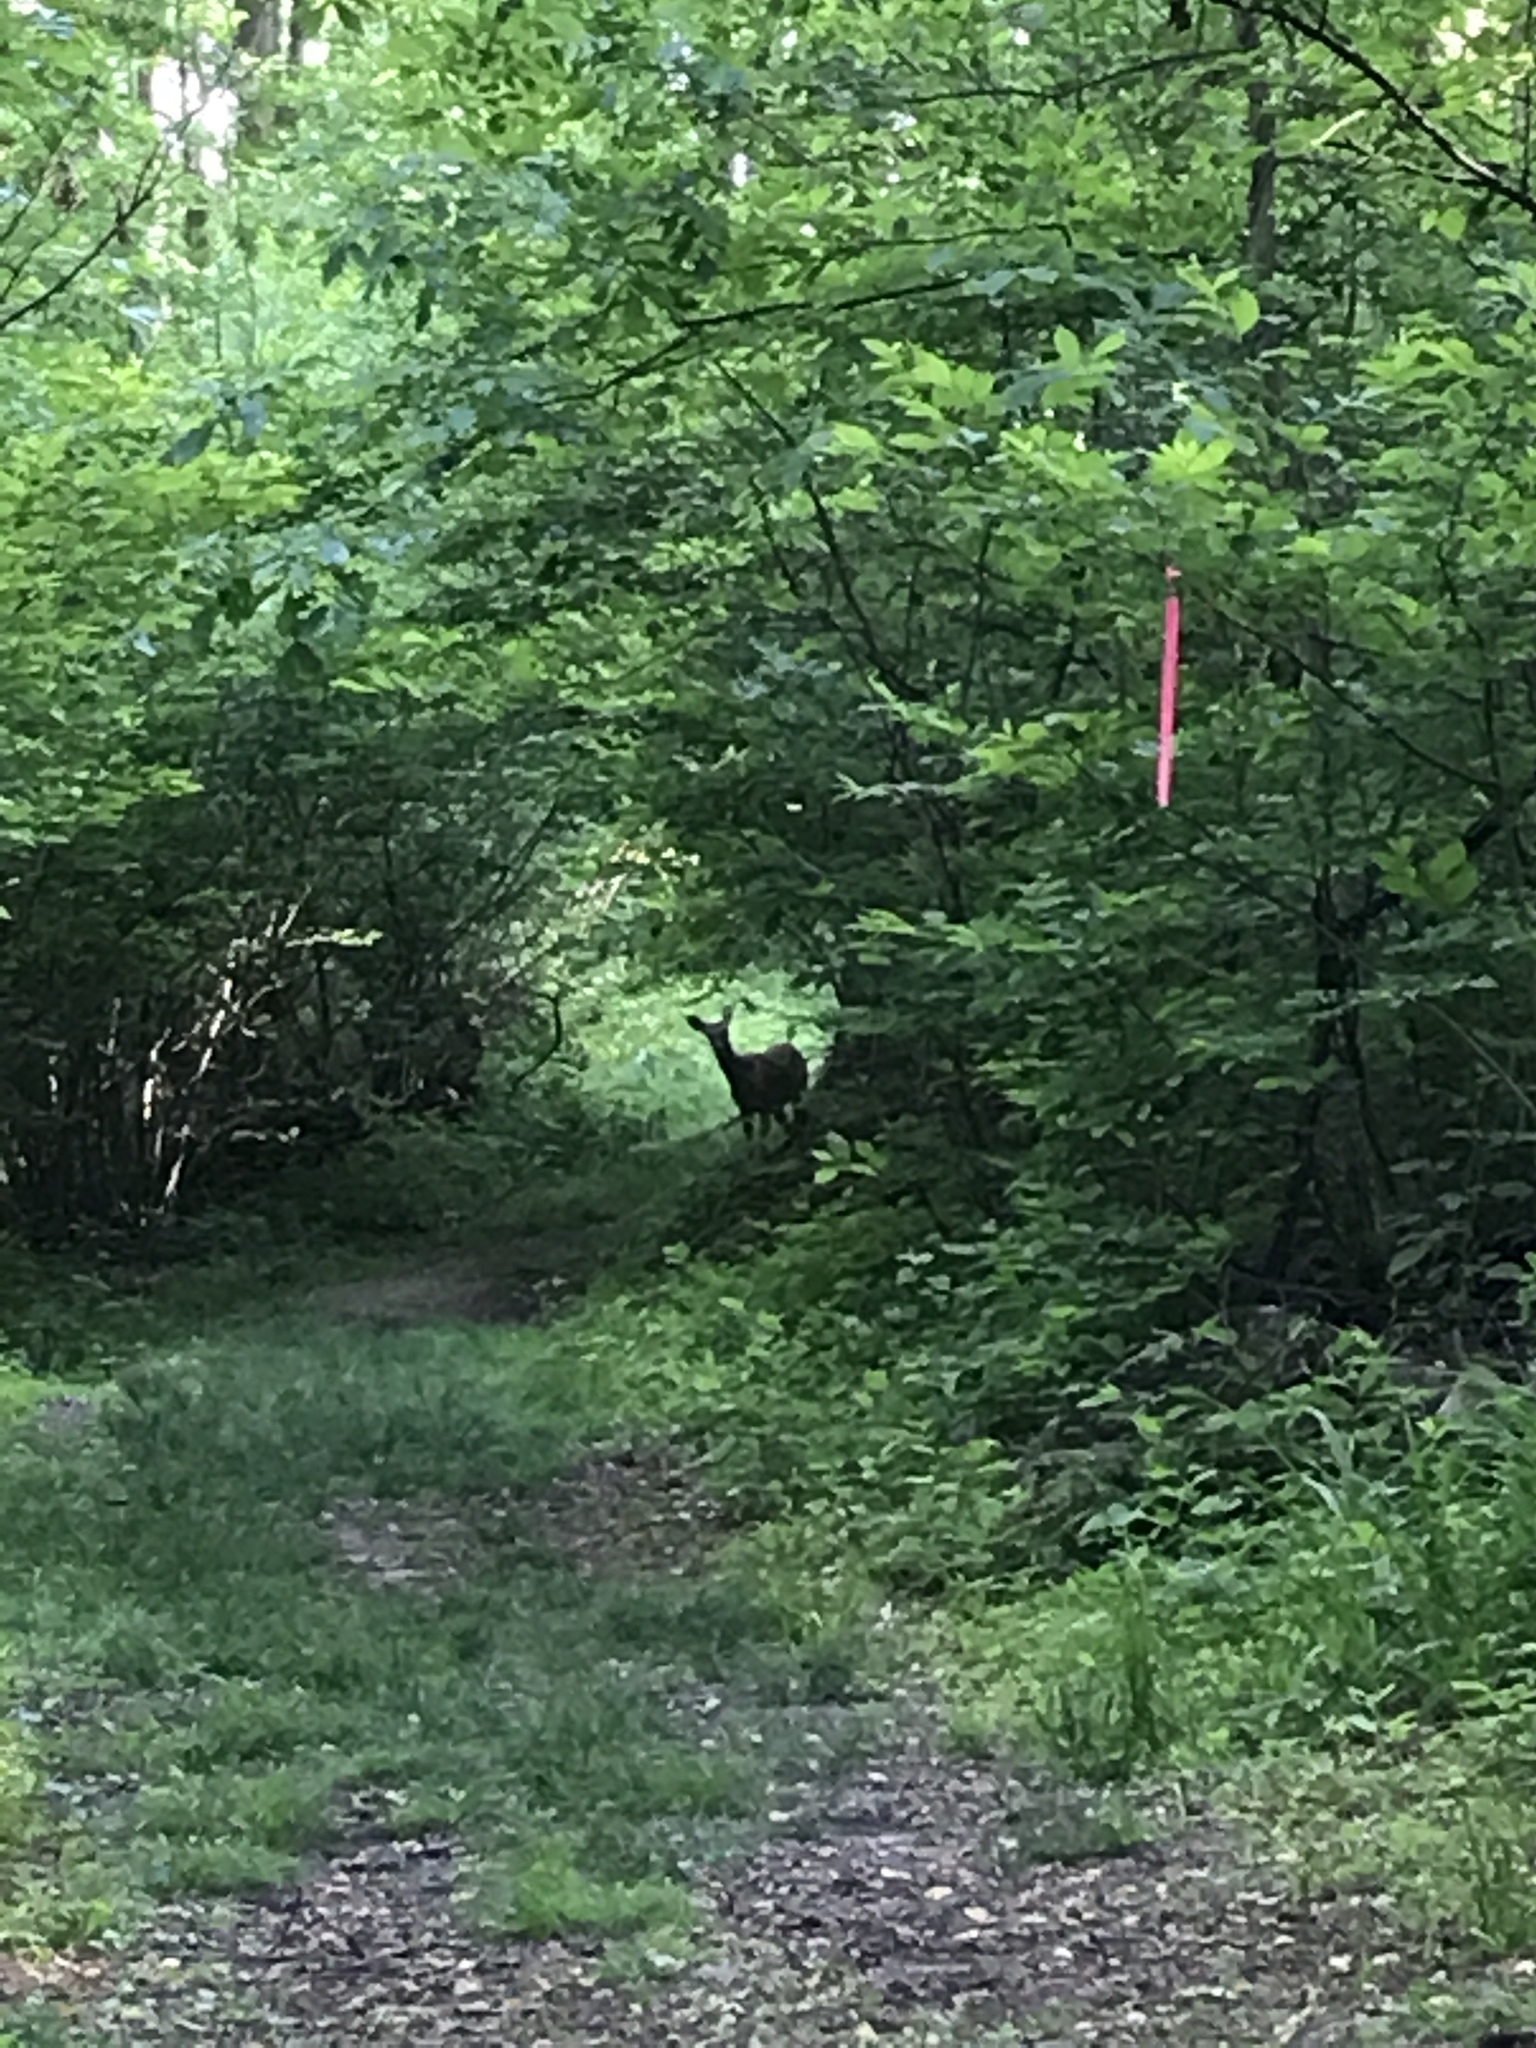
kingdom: Animalia
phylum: Chordata
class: Mammalia
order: Artiodactyla
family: Cervidae
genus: Odocoileus
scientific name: Odocoileus virginianus
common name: White-tailed deer
